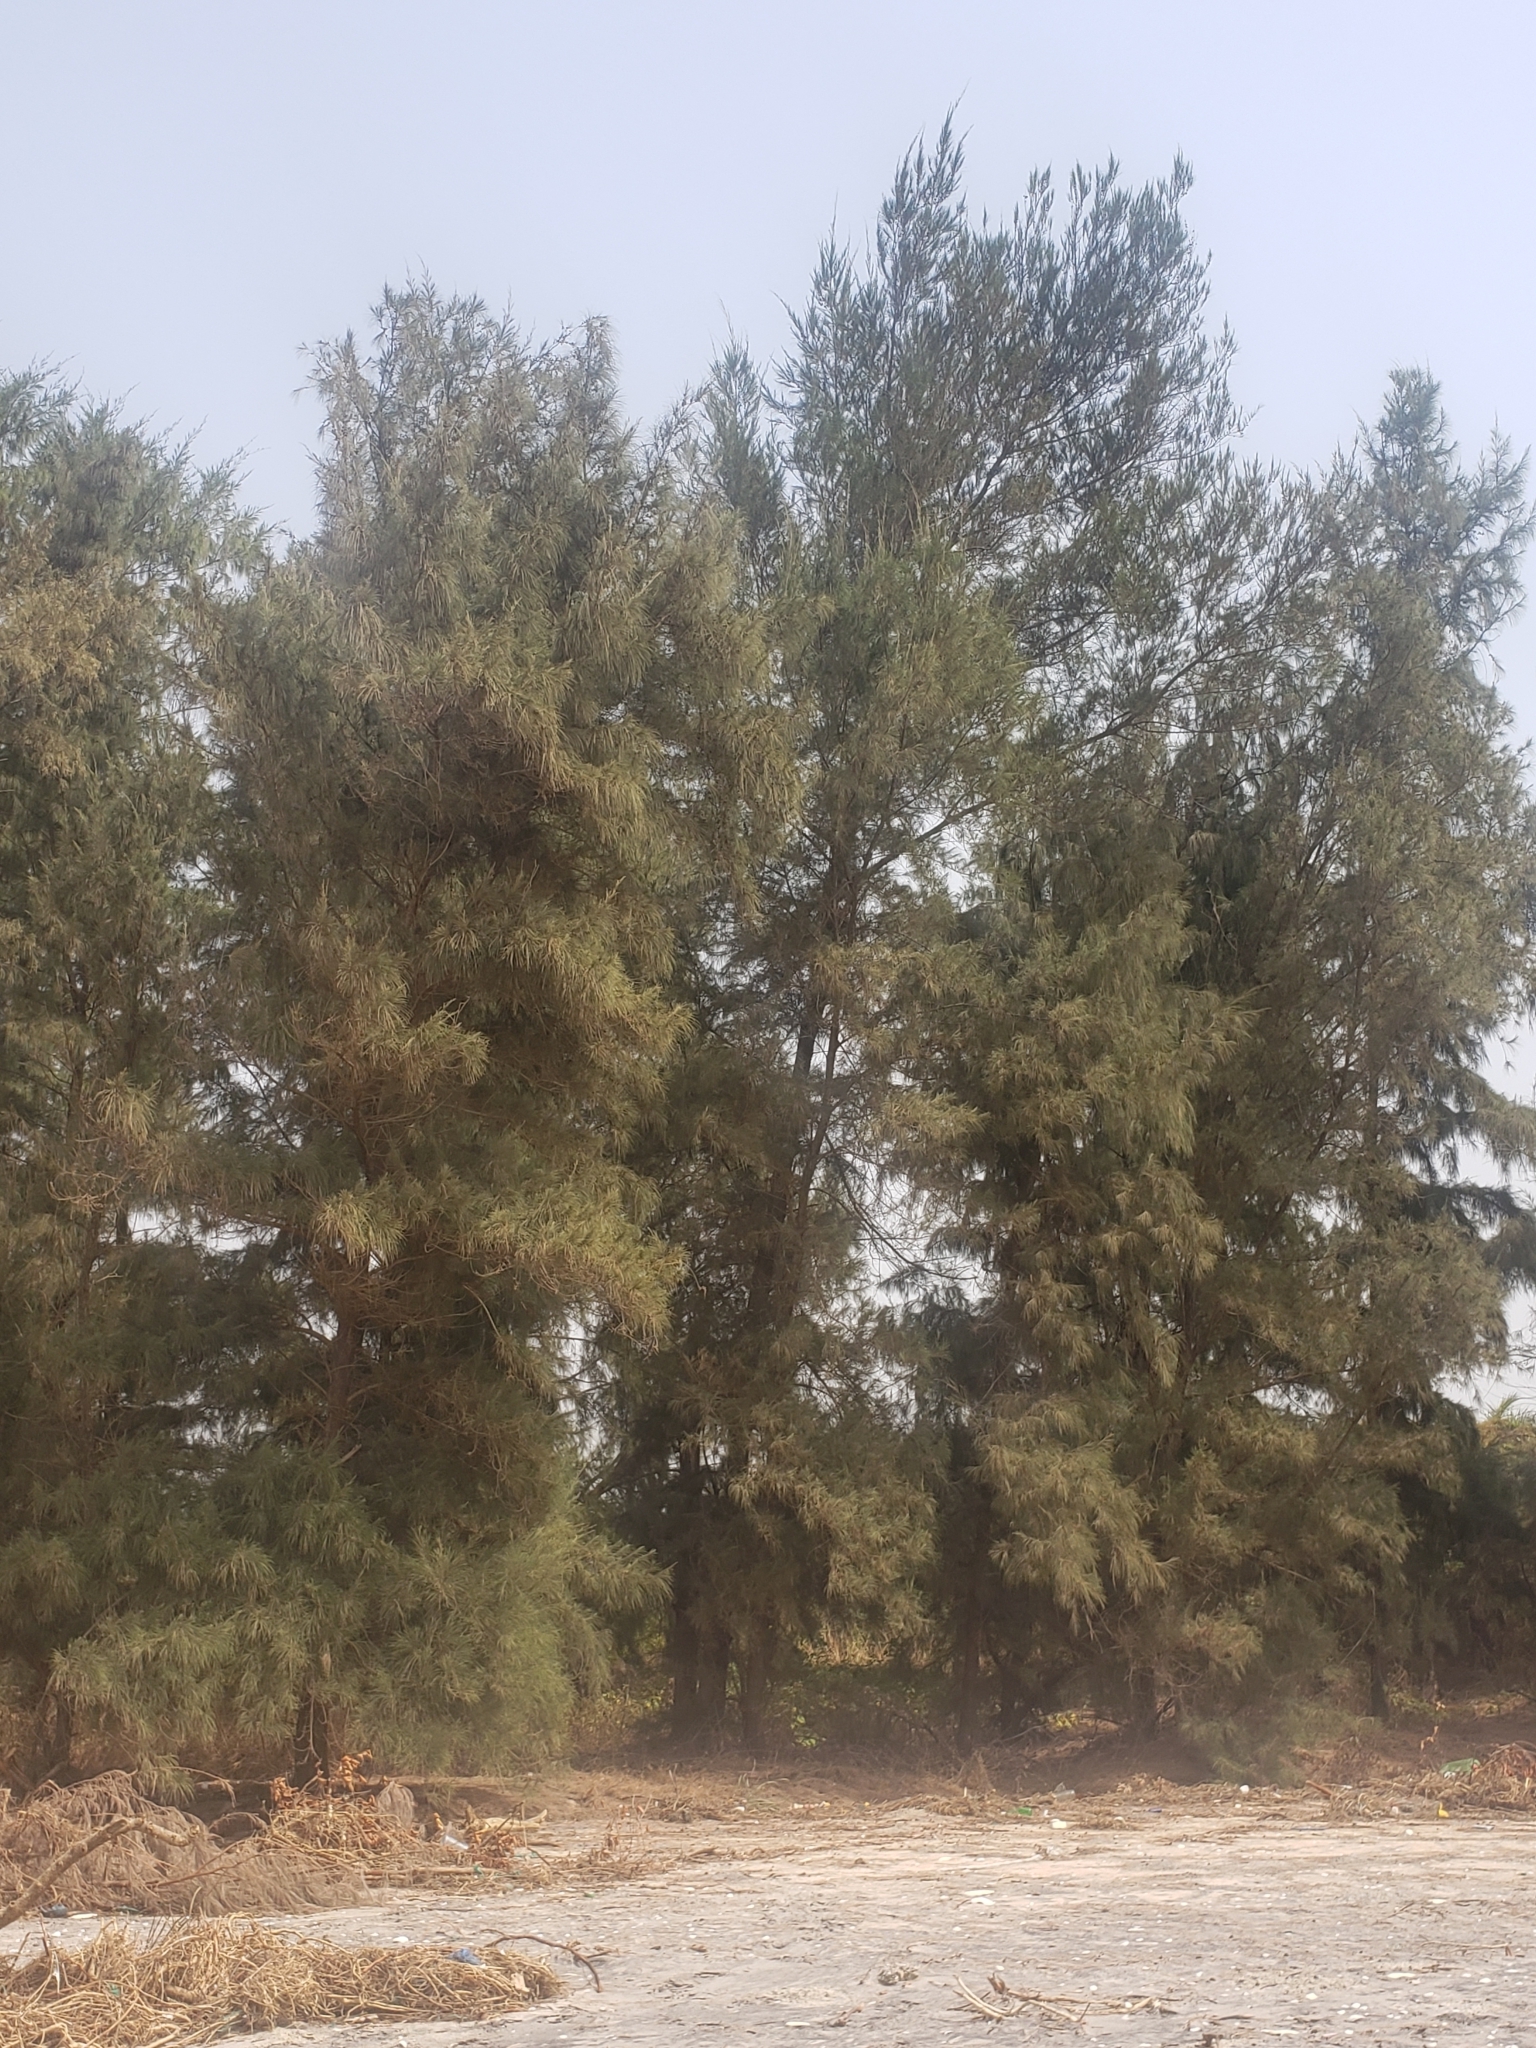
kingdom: Plantae
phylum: Tracheophyta
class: Magnoliopsida
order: Fagales
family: Casuarinaceae
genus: Casuarina
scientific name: Casuarina equisetifolia
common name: Beach sheoak
